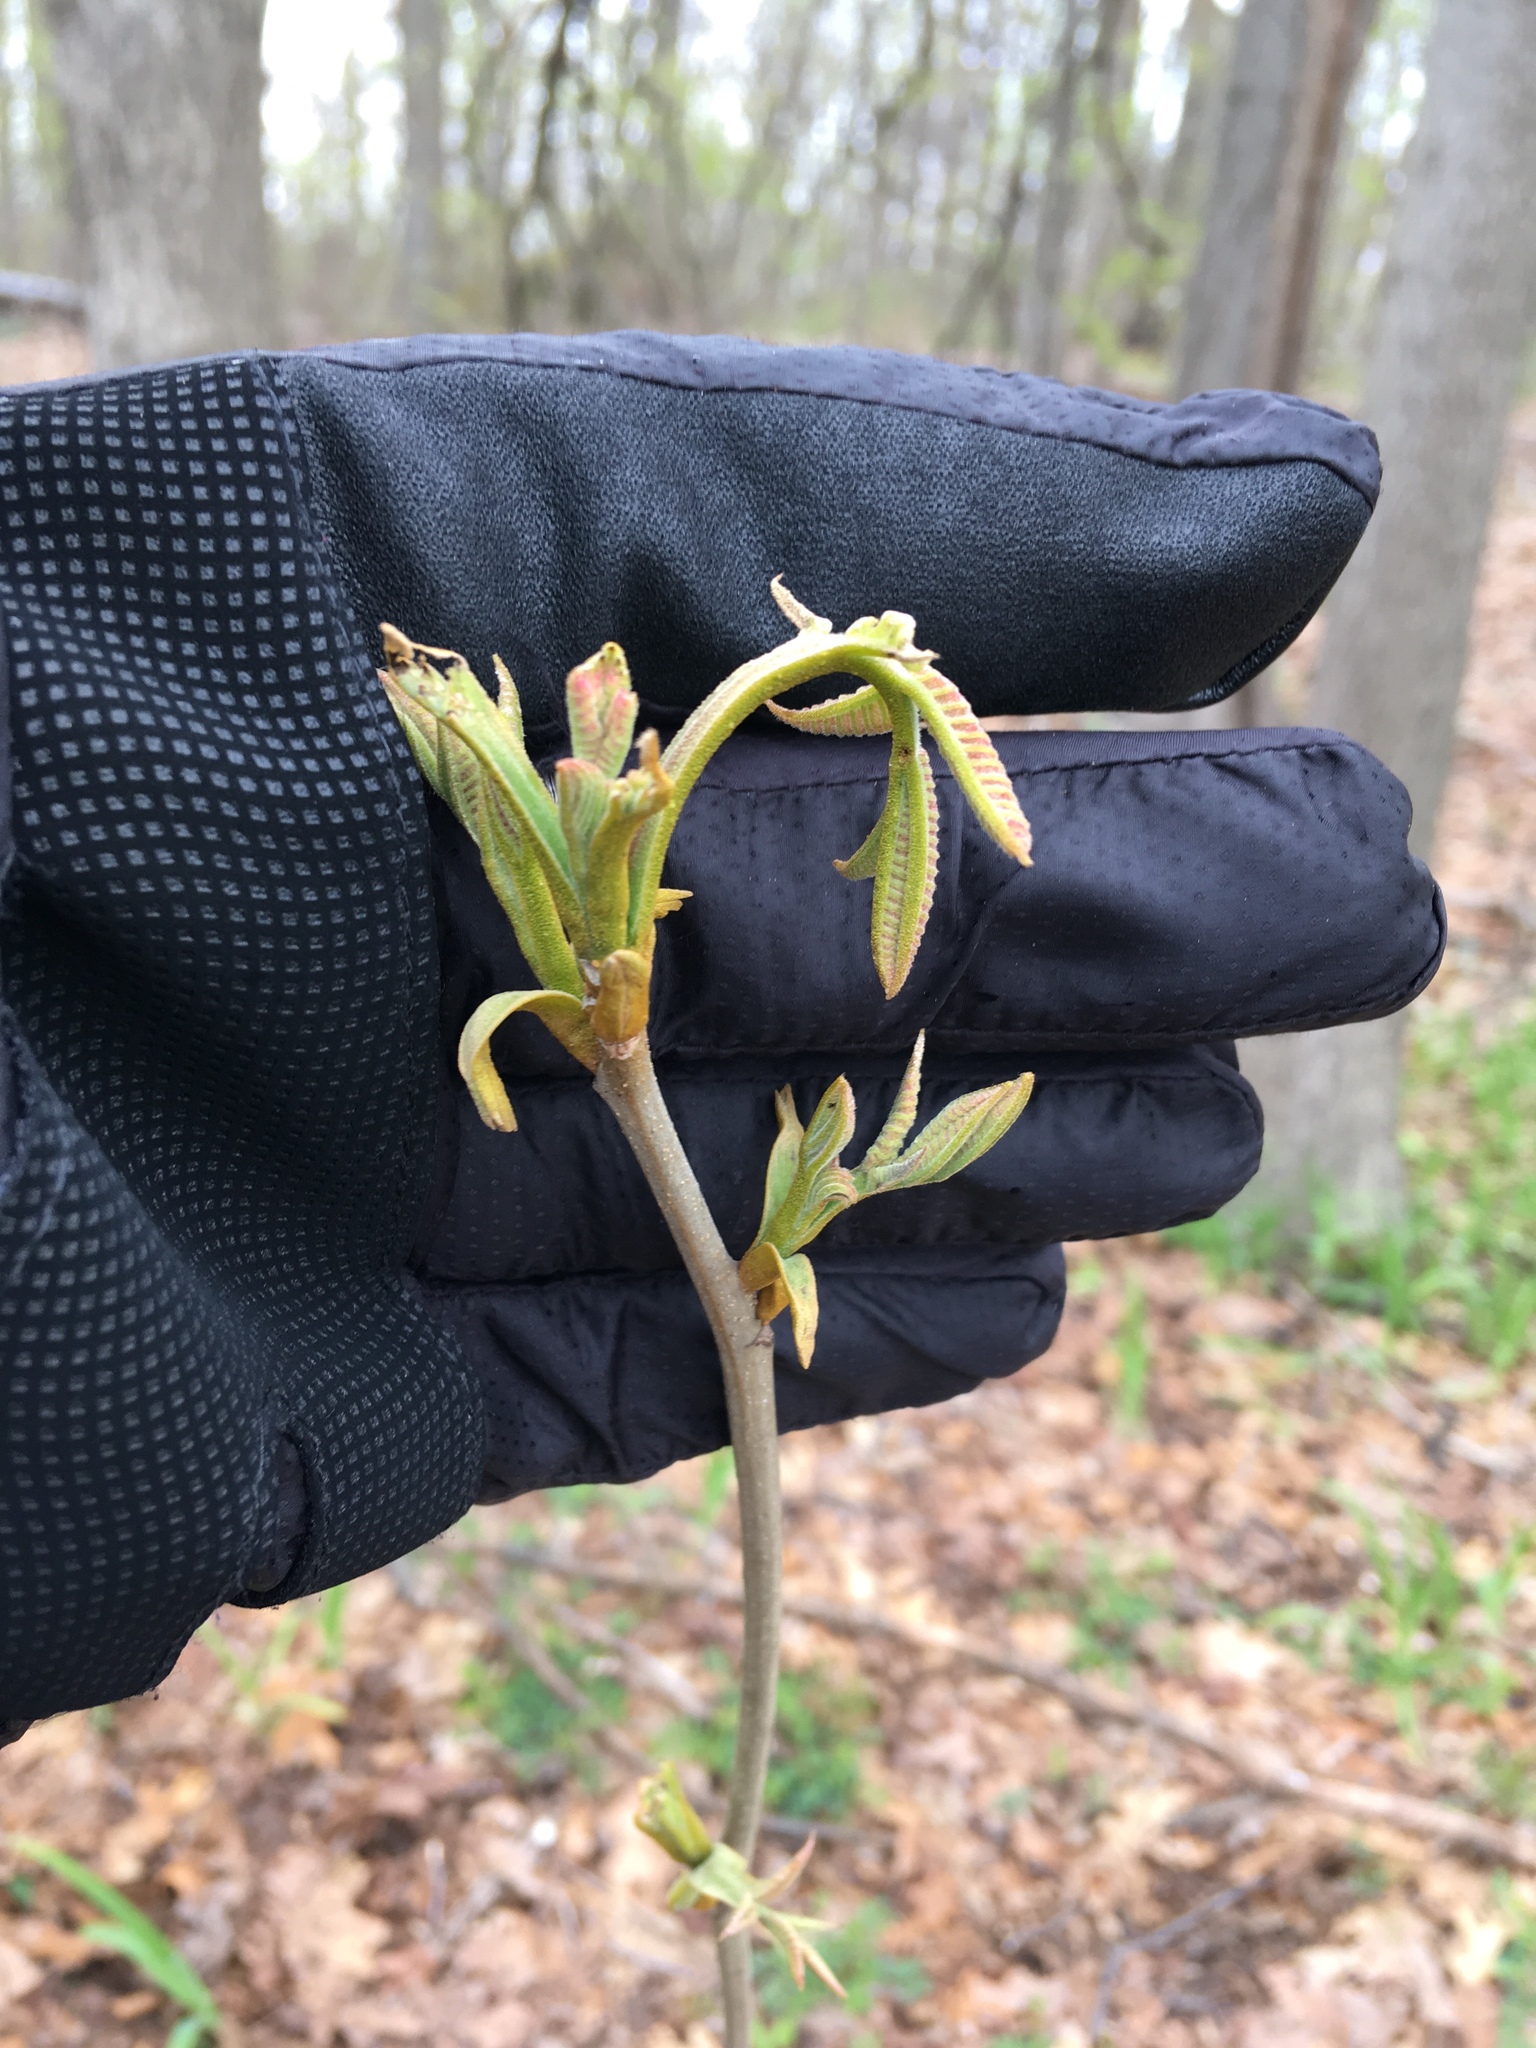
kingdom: Plantae
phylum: Tracheophyta
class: Magnoliopsida
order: Fagales
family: Juglandaceae
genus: Carya
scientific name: Carya cordiformis
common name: Bitternut hickory
